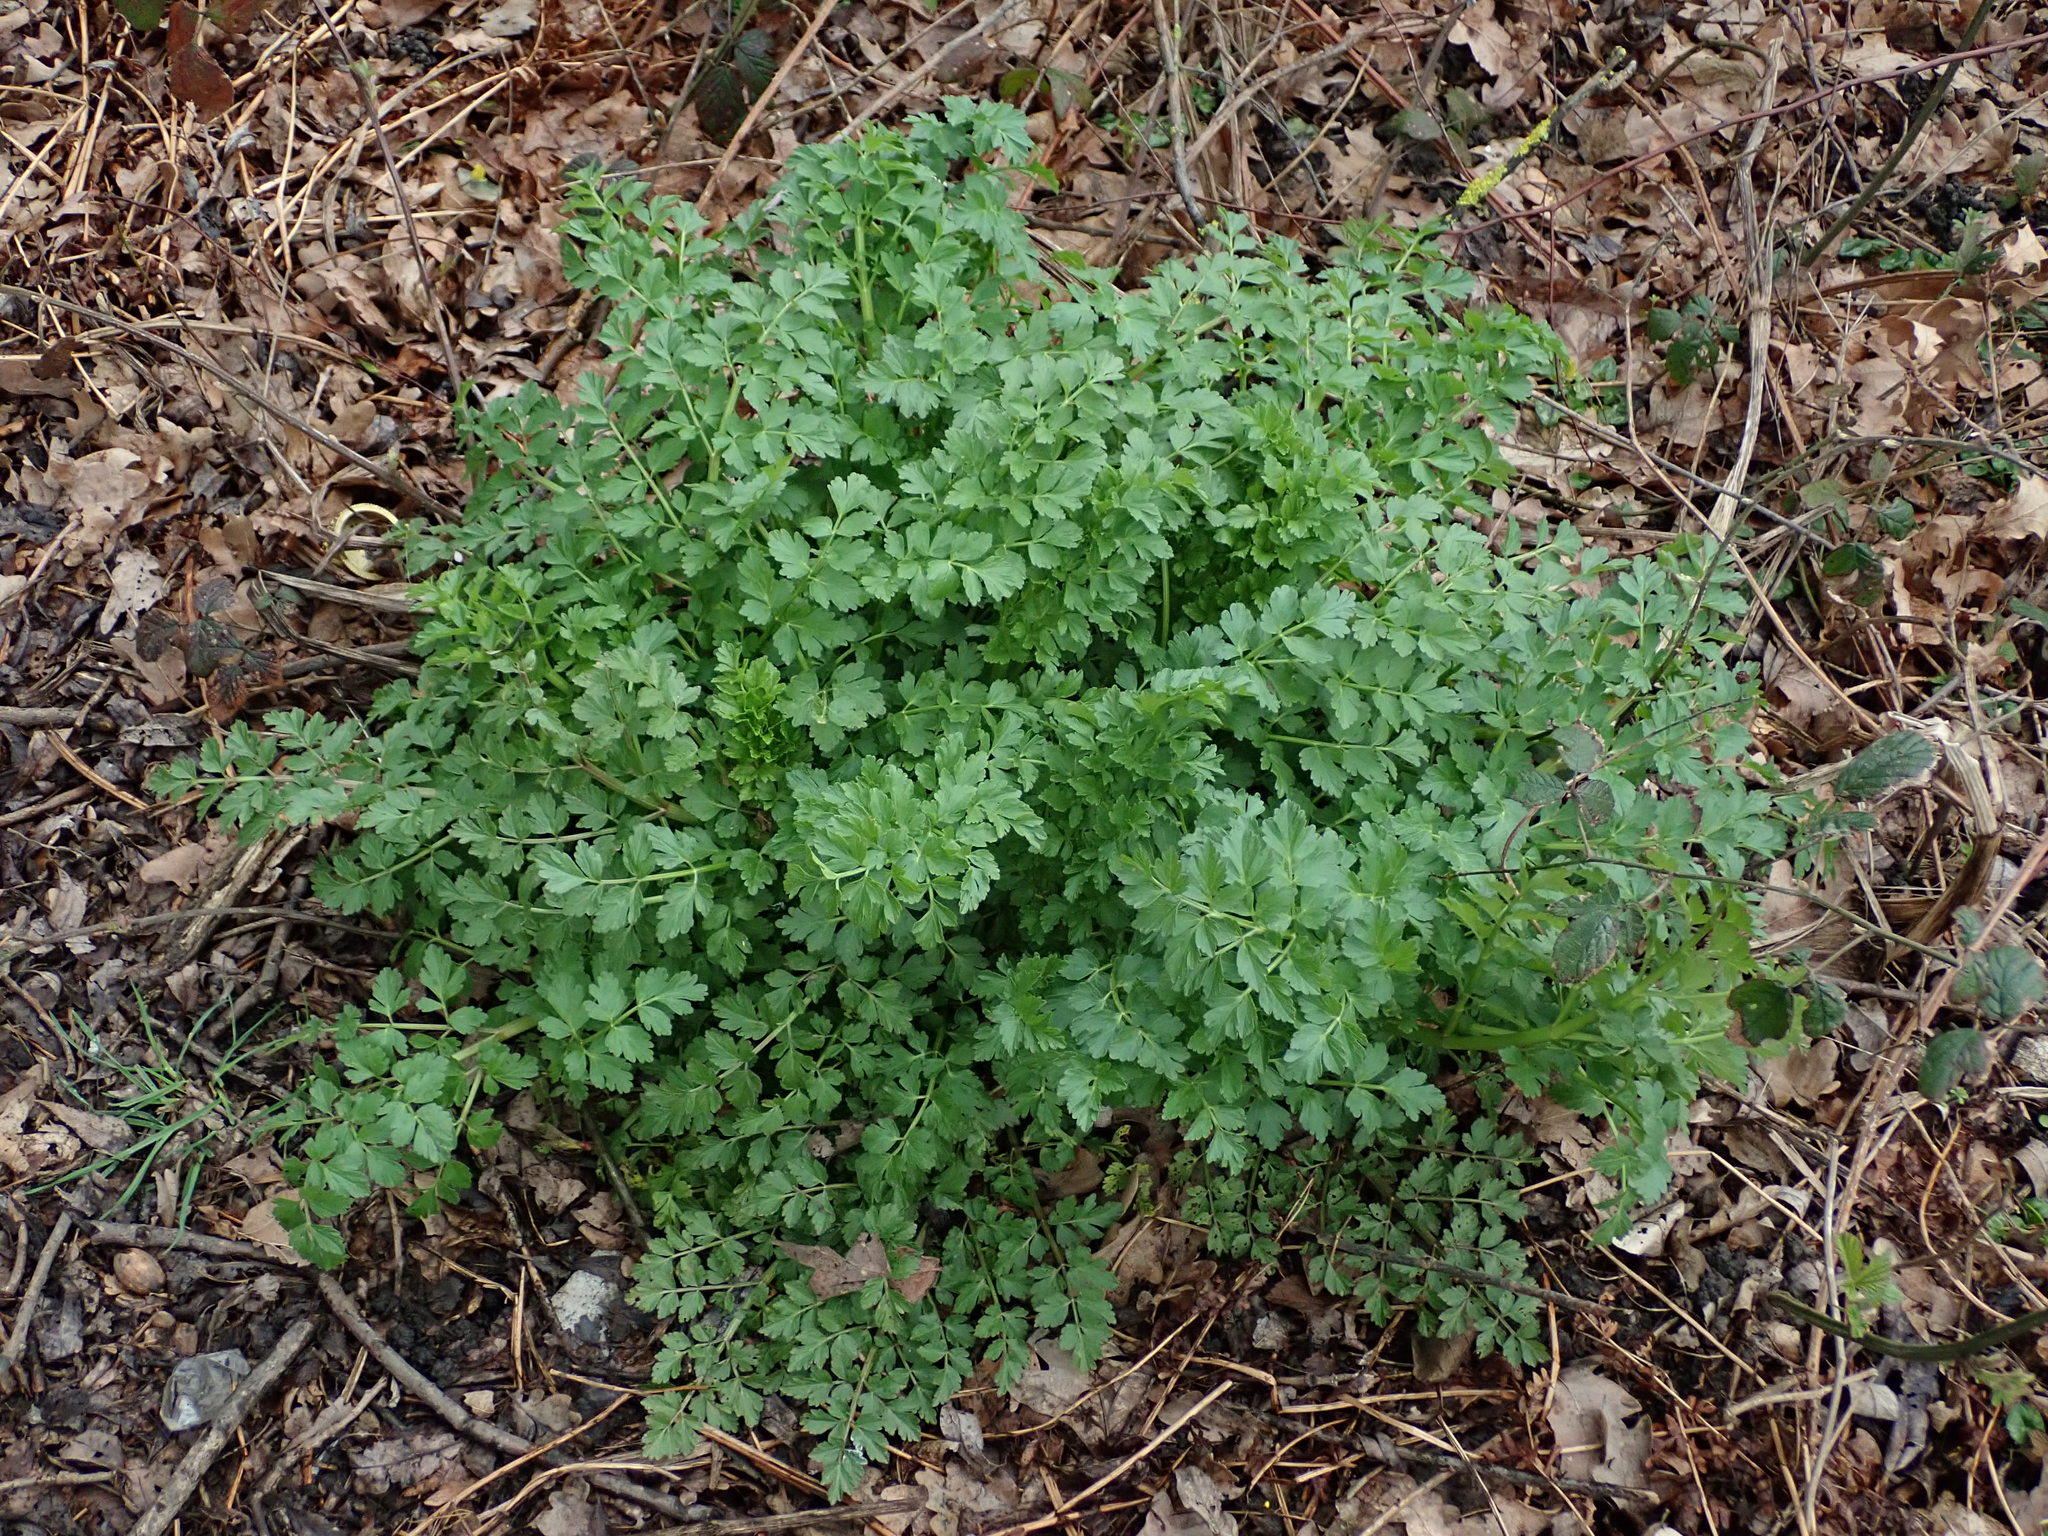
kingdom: Plantae
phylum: Tracheophyta
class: Magnoliopsida
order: Apiales
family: Apiaceae
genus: Oenanthe
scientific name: Oenanthe crocata
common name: Hemlock water-dropwort
